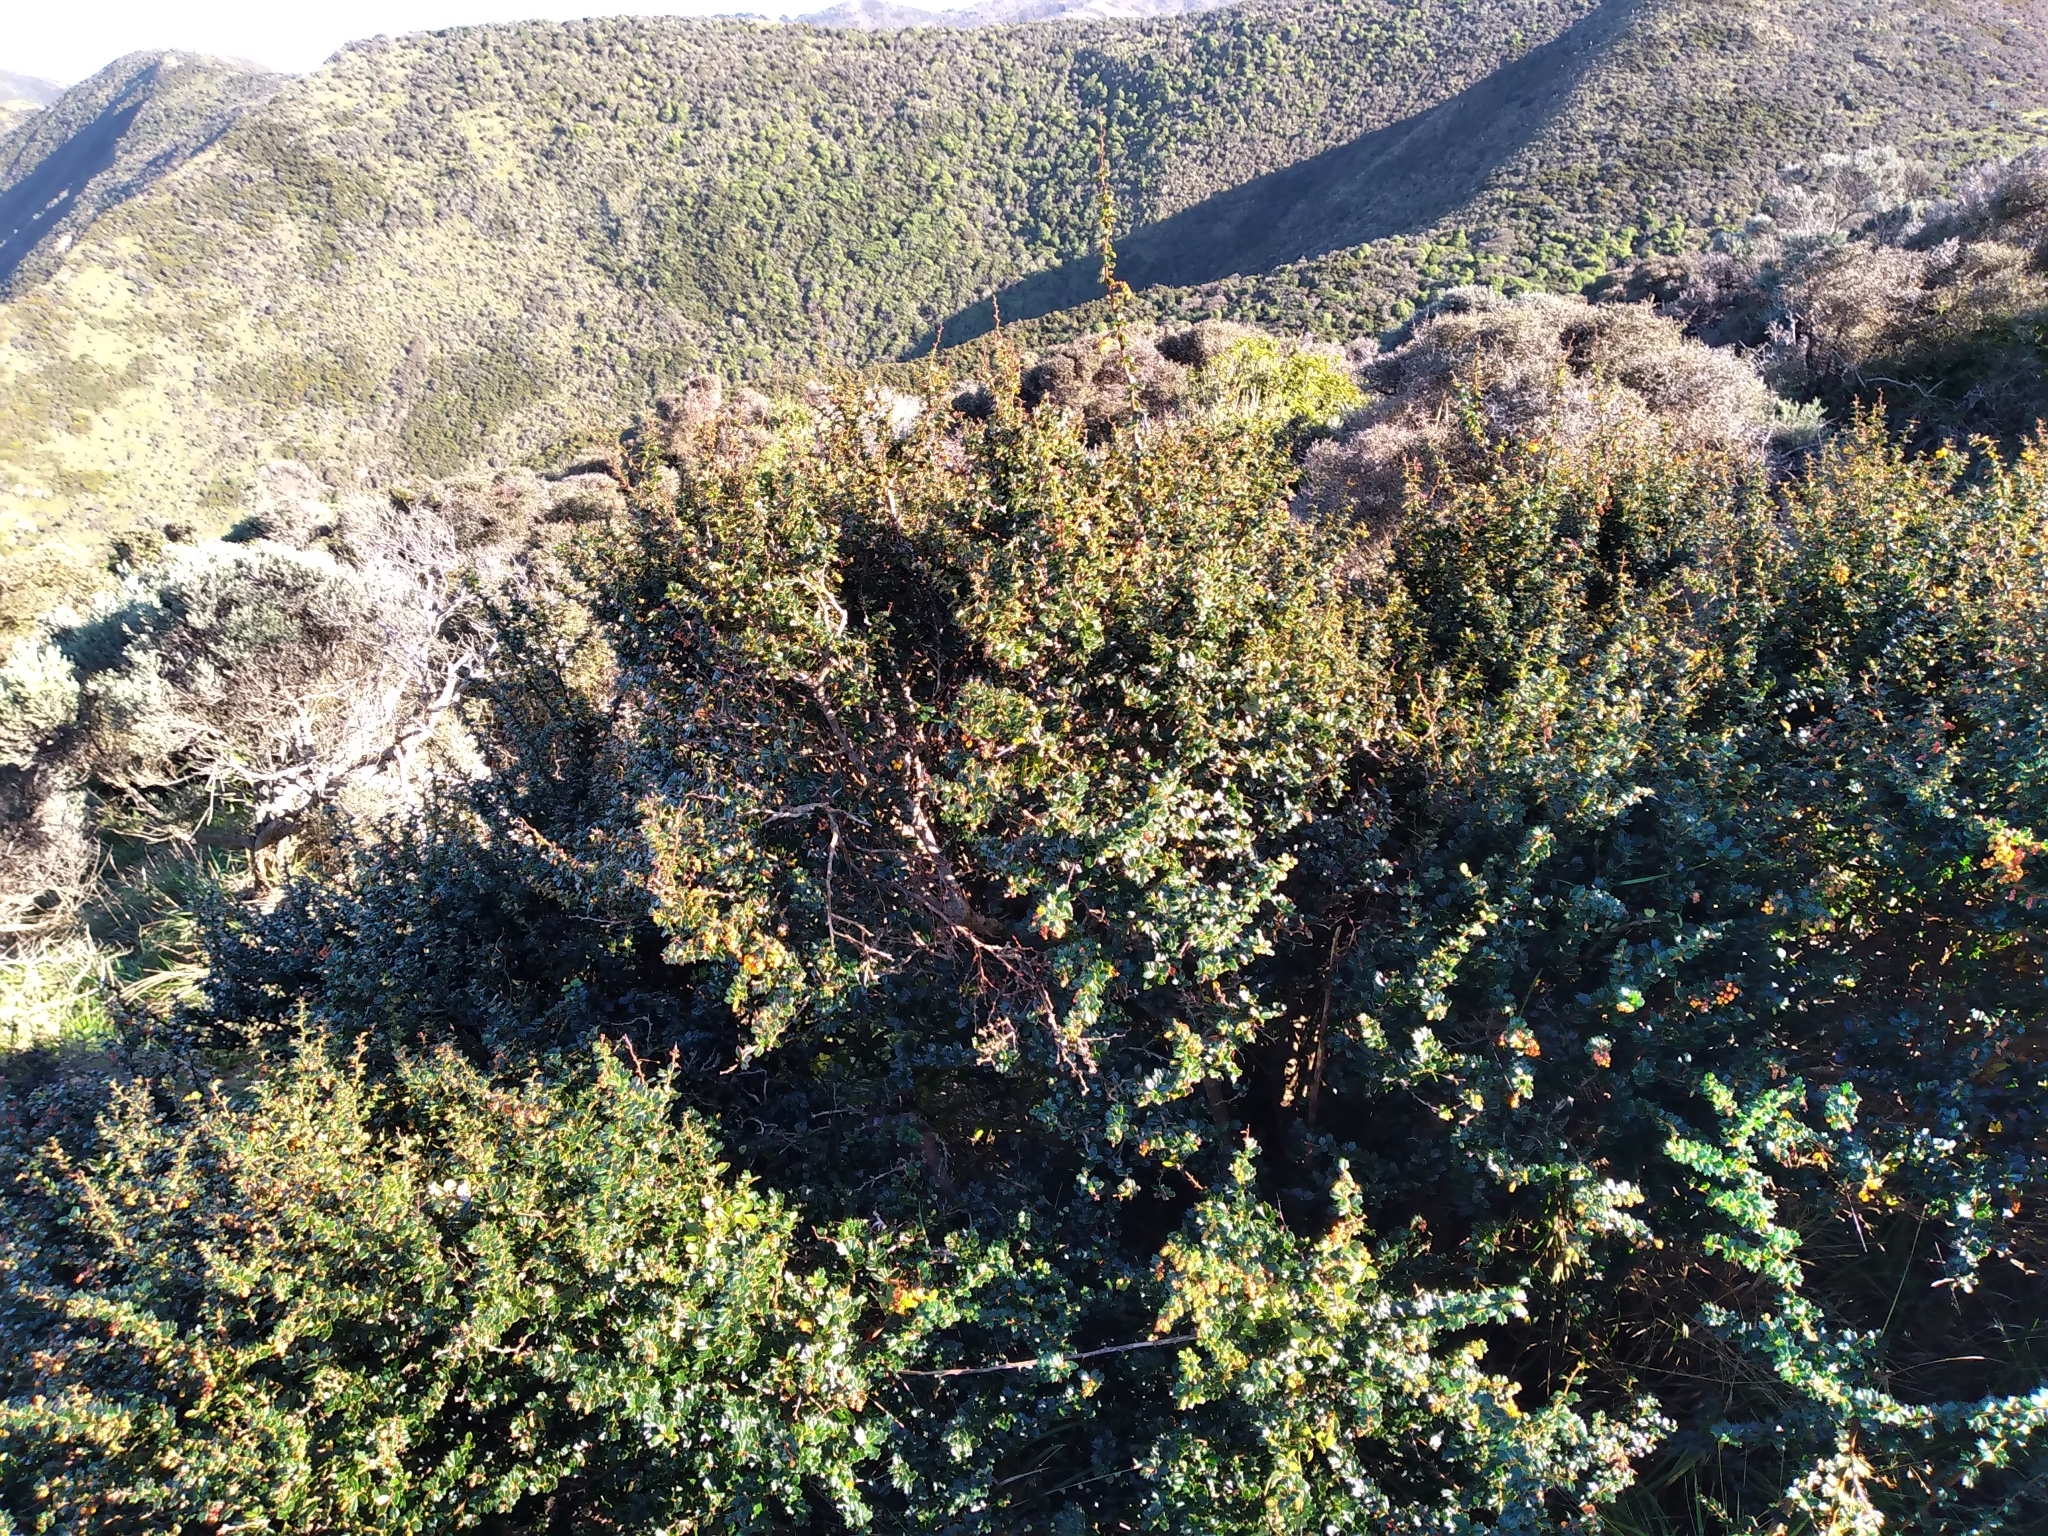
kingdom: Plantae
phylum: Tracheophyta
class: Magnoliopsida
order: Ranunculales
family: Berberidaceae
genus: Berberis
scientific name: Berberis darwinii
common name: Darwin's barberry
